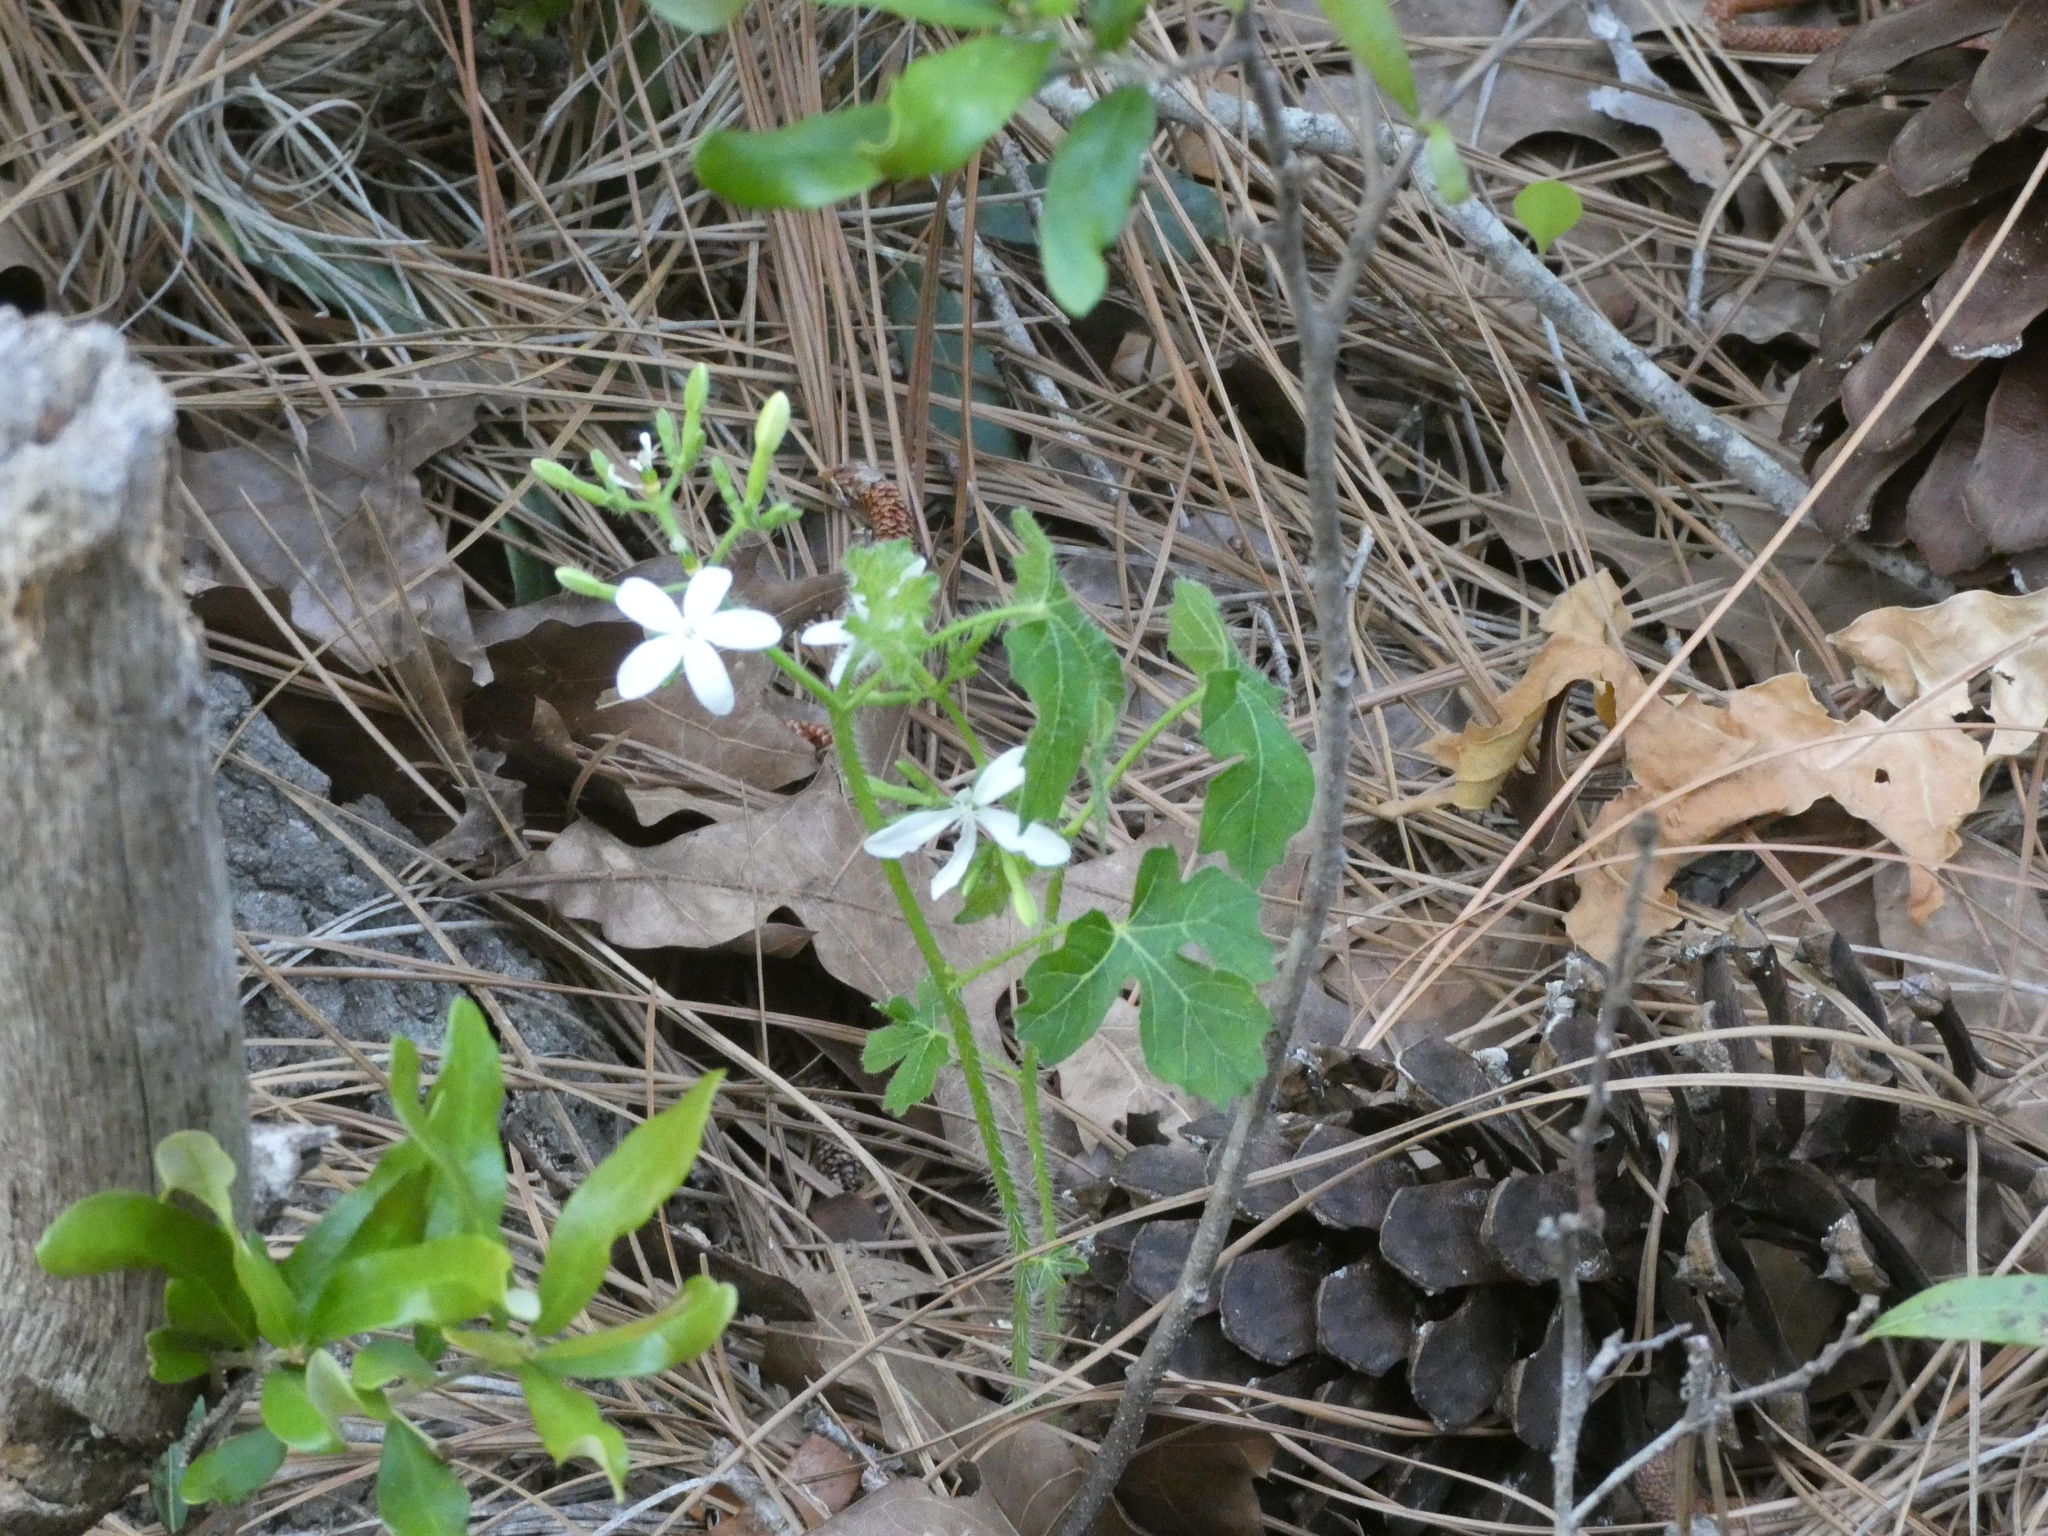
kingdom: Plantae
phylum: Tracheophyta
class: Magnoliopsida
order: Malpighiales
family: Euphorbiaceae
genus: Cnidoscolus
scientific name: Cnidoscolus stimulosus
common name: Bull-nettle
